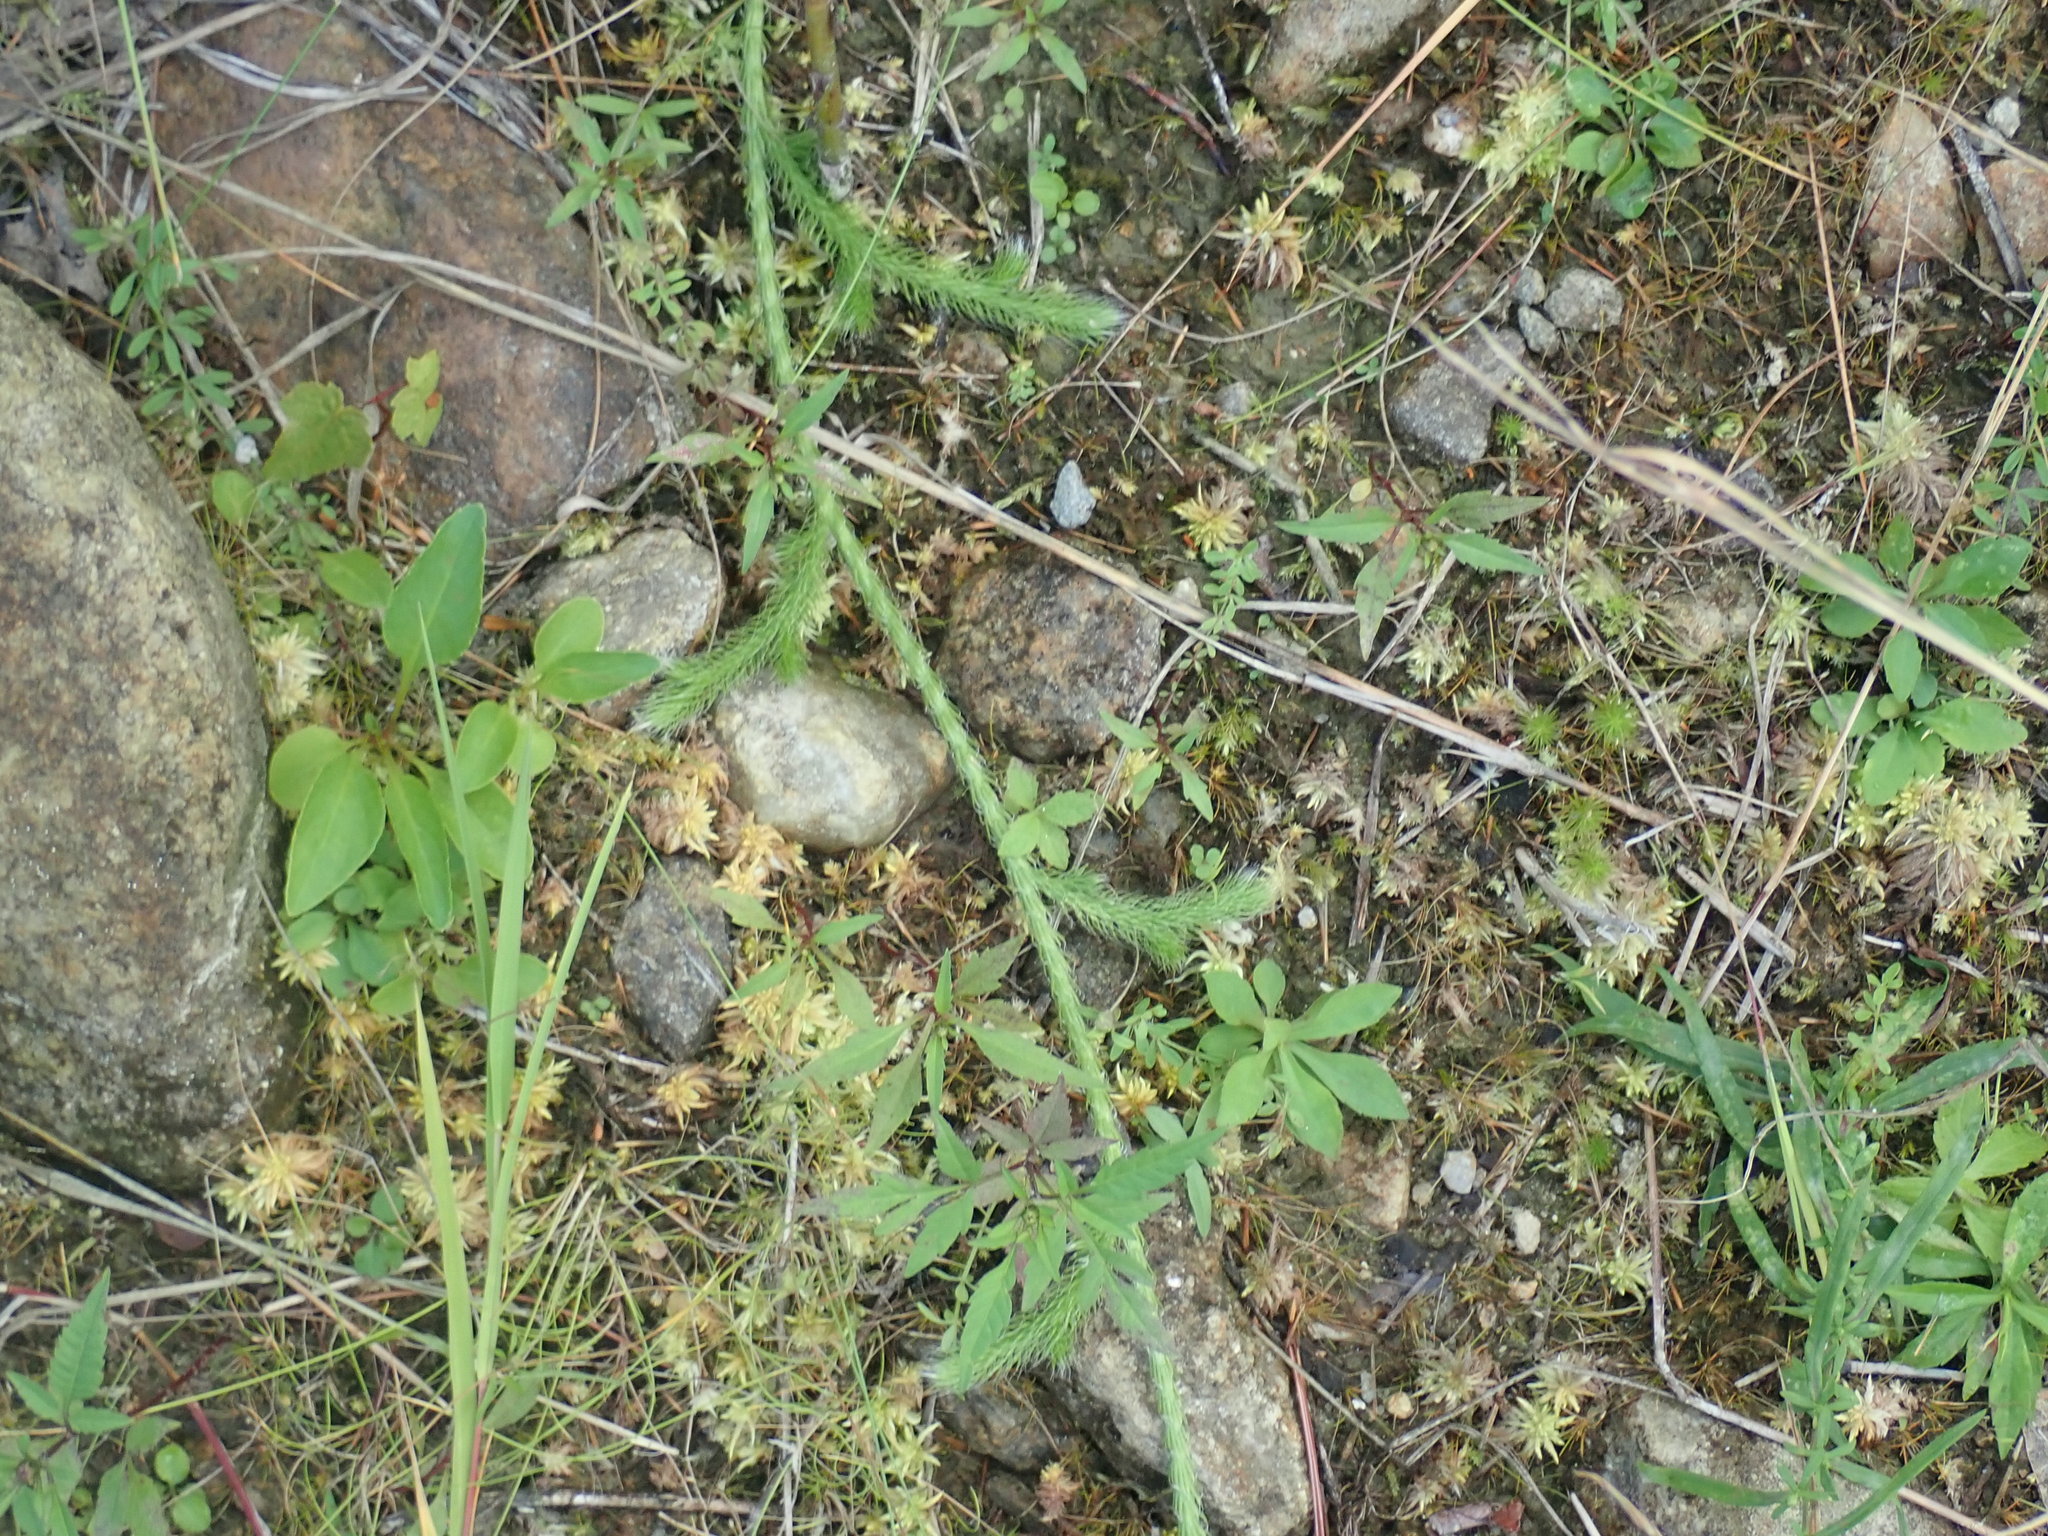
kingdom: Plantae
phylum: Tracheophyta
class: Lycopodiopsida
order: Lycopodiales
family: Lycopodiaceae
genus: Lycopodium
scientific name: Lycopodium lagopus
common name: One-cone clubmoss
